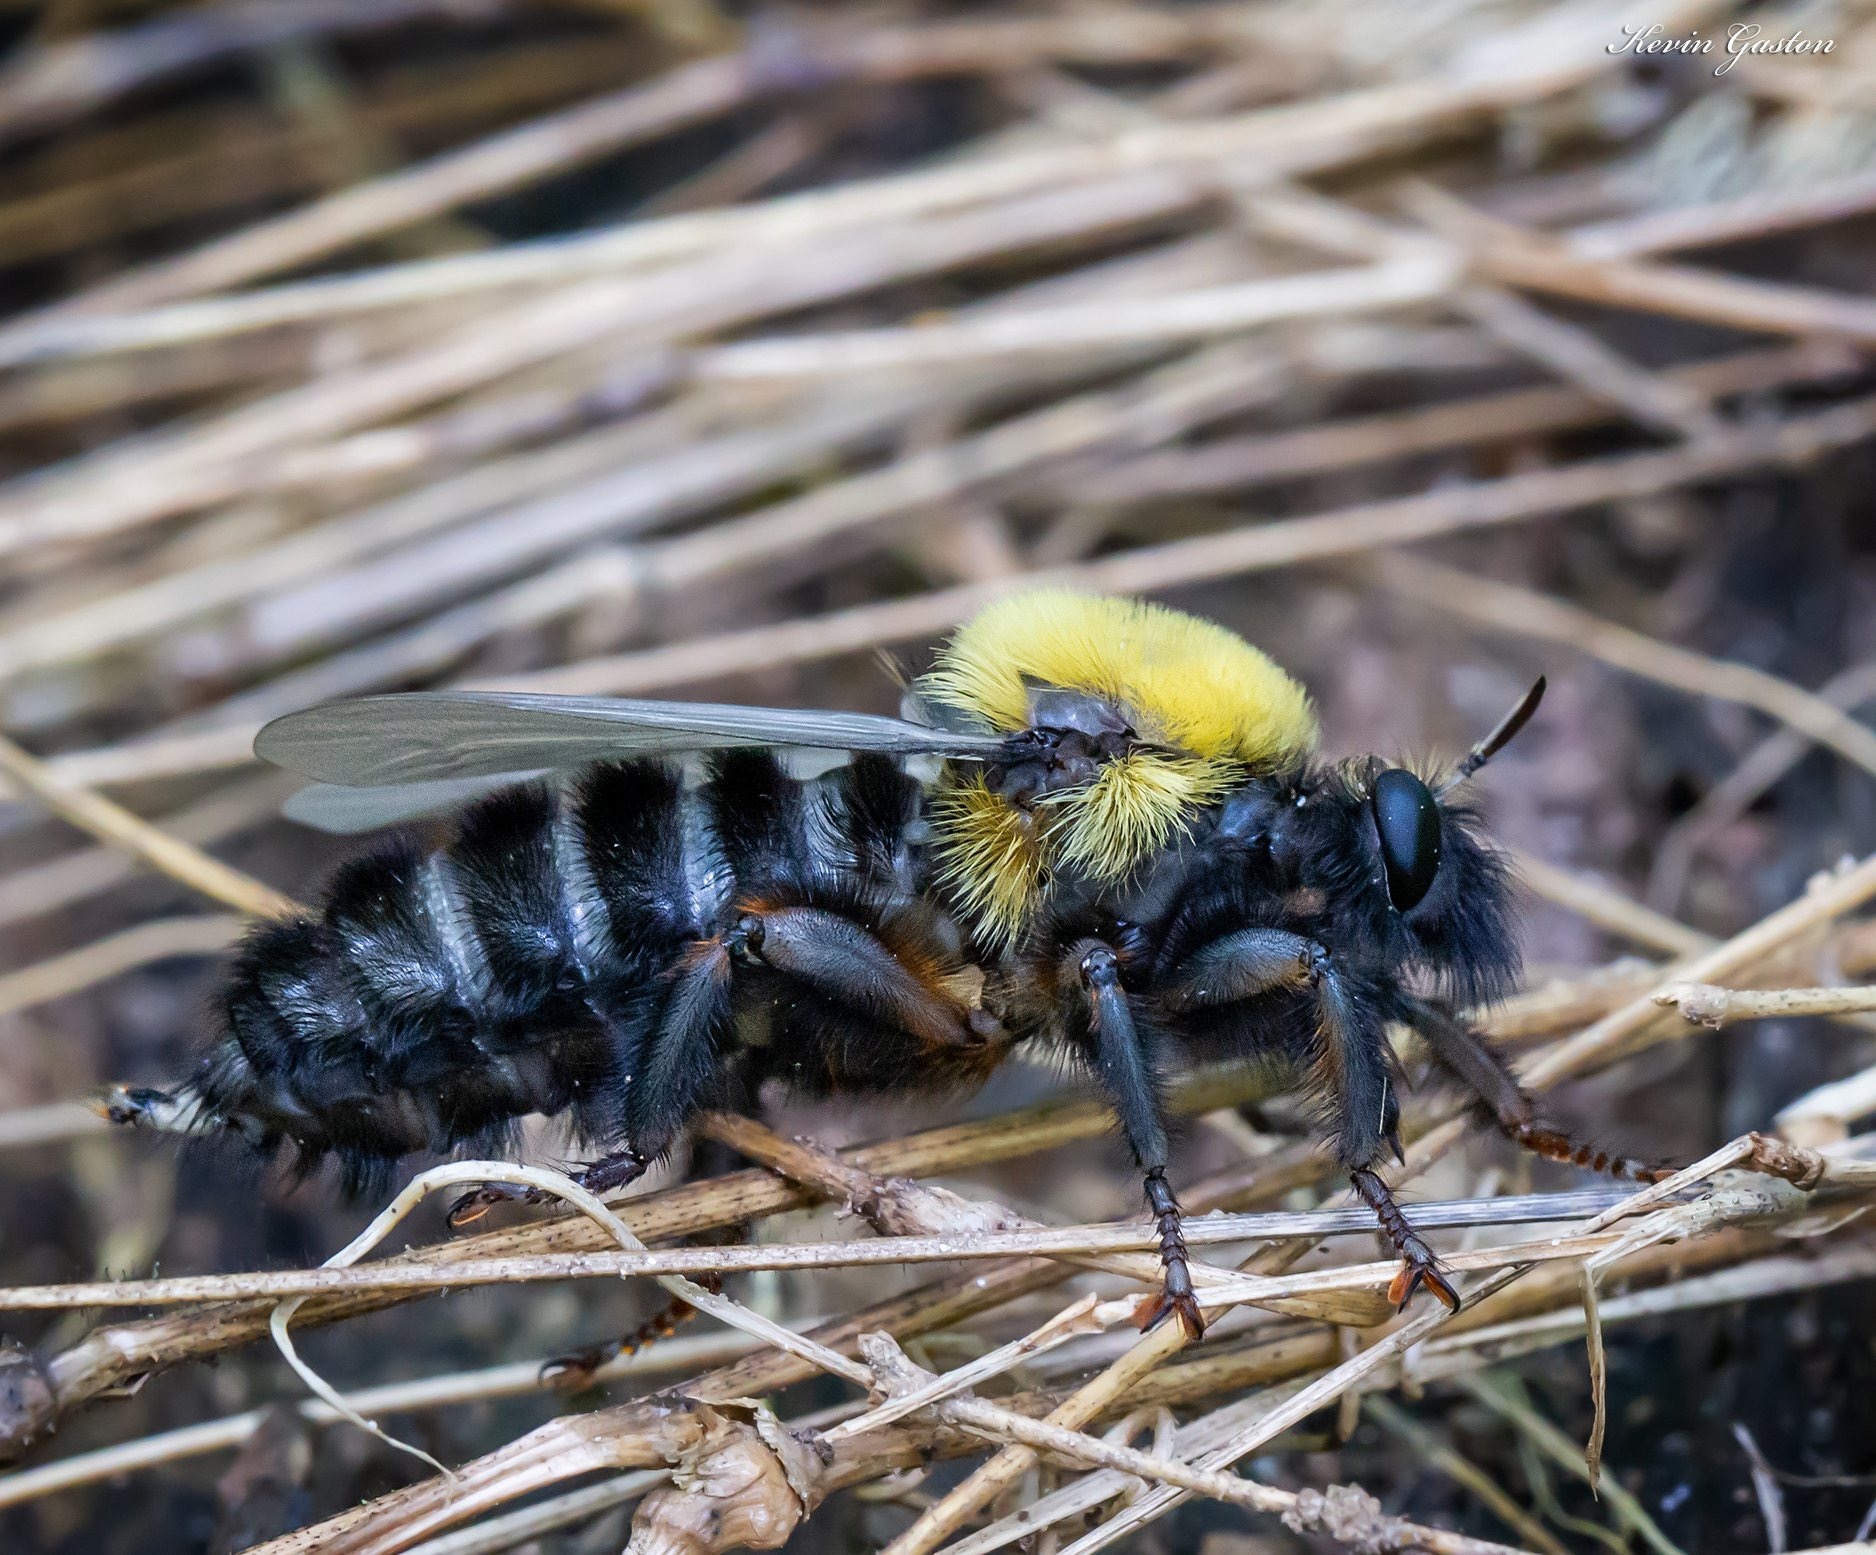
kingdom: Animalia
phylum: Arthropoda
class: Insecta
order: Diptera
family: Asilidae
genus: Laphria
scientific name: Laphria thoracica
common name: Bumble bee mimic robber fly
